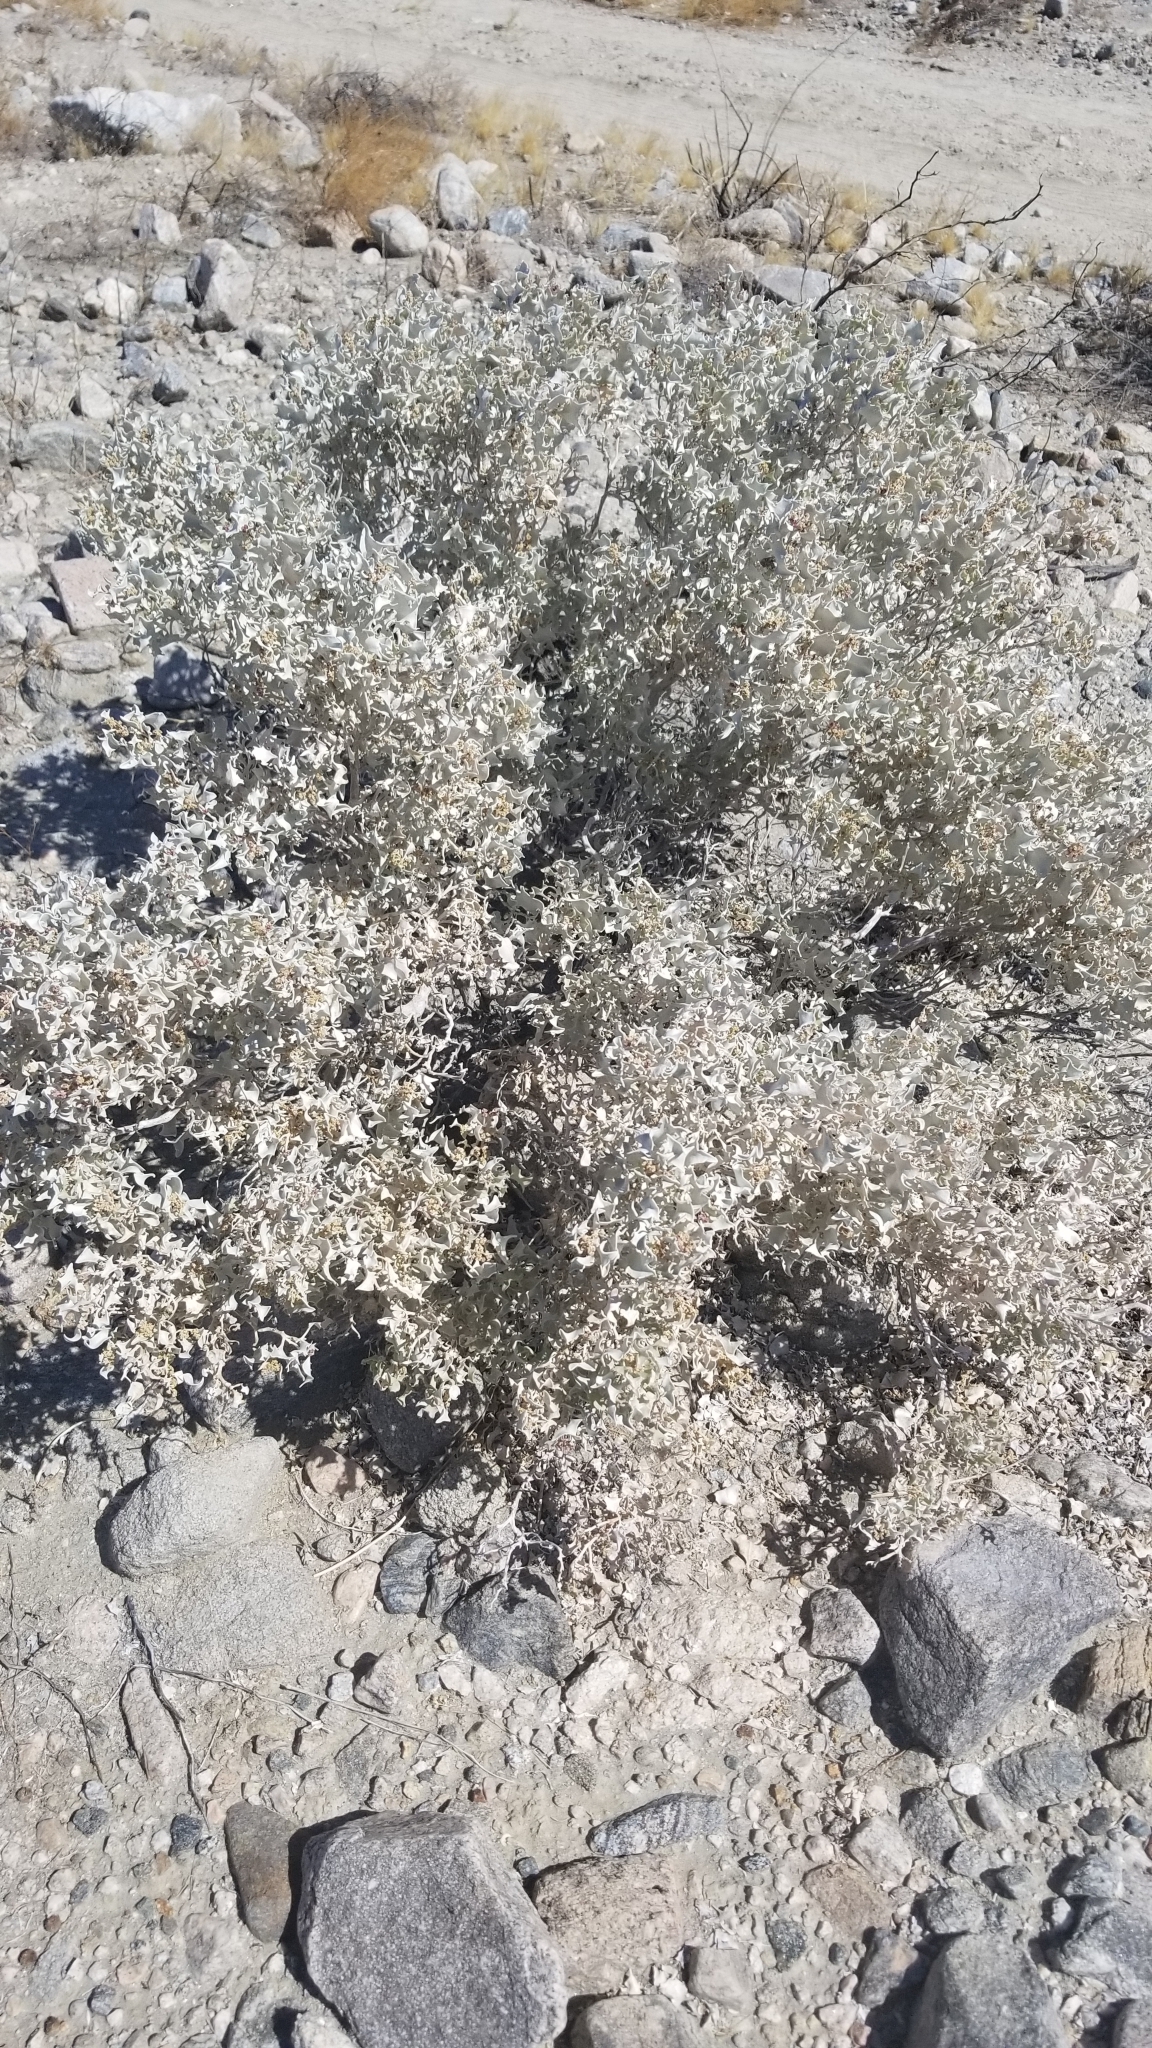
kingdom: Plantae
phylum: Tracheophyta
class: Magnoliopsida
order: Caryophyllales
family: Amaranthaceae
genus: Atriplex
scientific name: Atriplex hymenelytra
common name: Desert-holly
